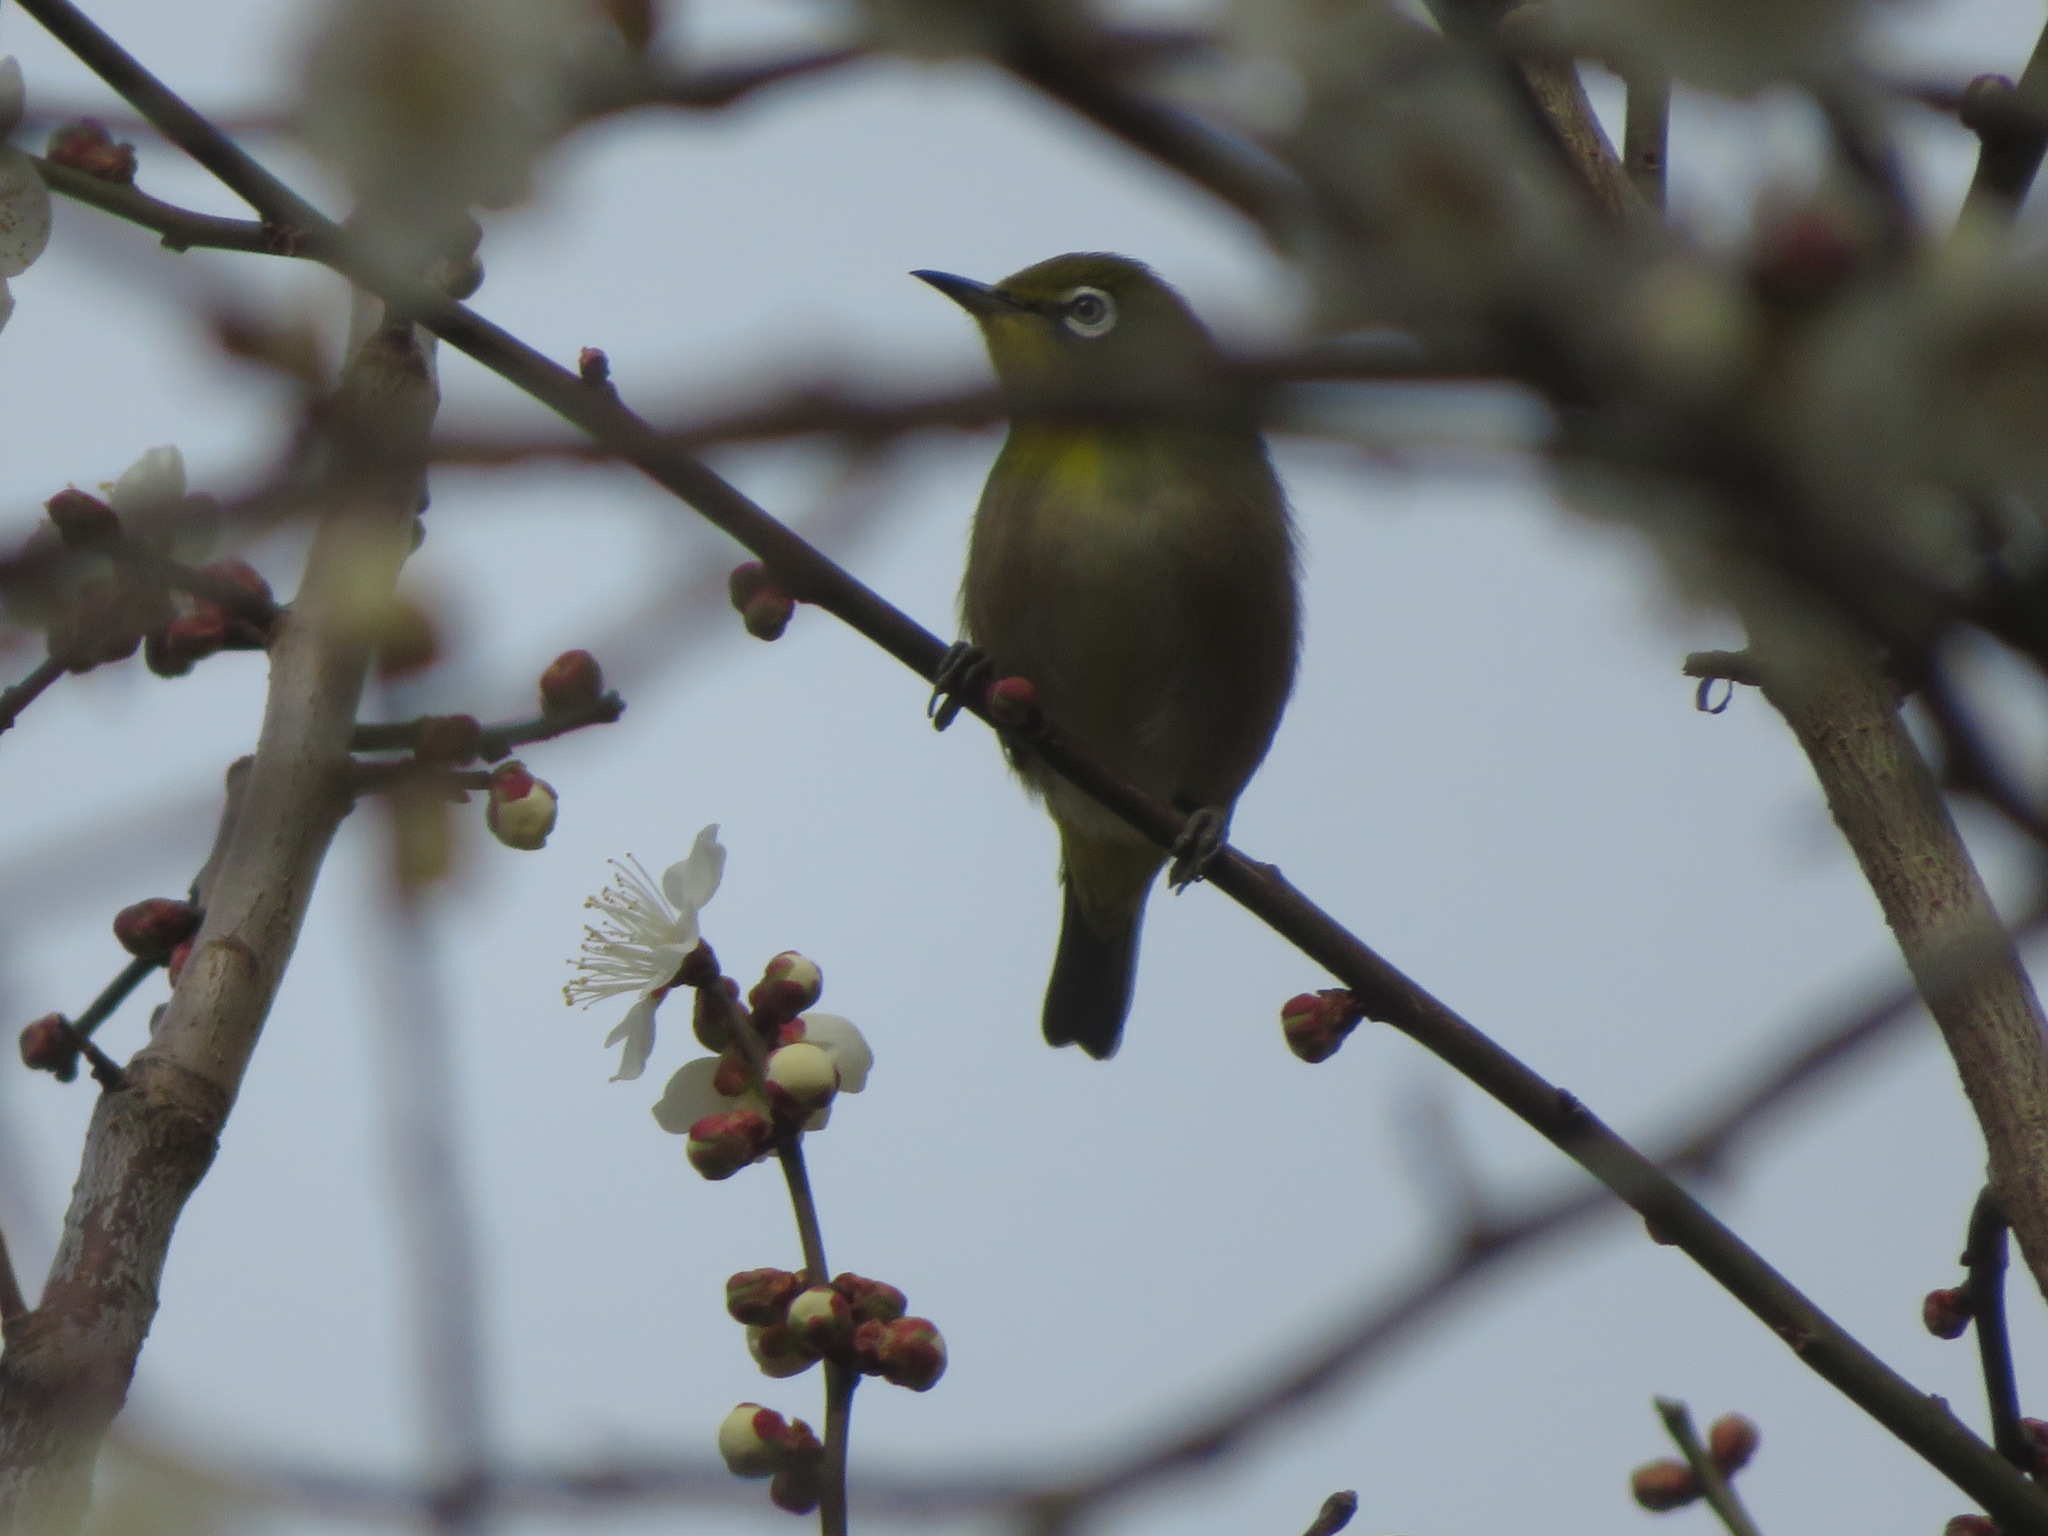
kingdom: Animalia
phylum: Chordata
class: Aves
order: Passeriformes
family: Zosteropidae
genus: Zosterops
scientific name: Zosterops japonicus
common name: Japanese white-eye
